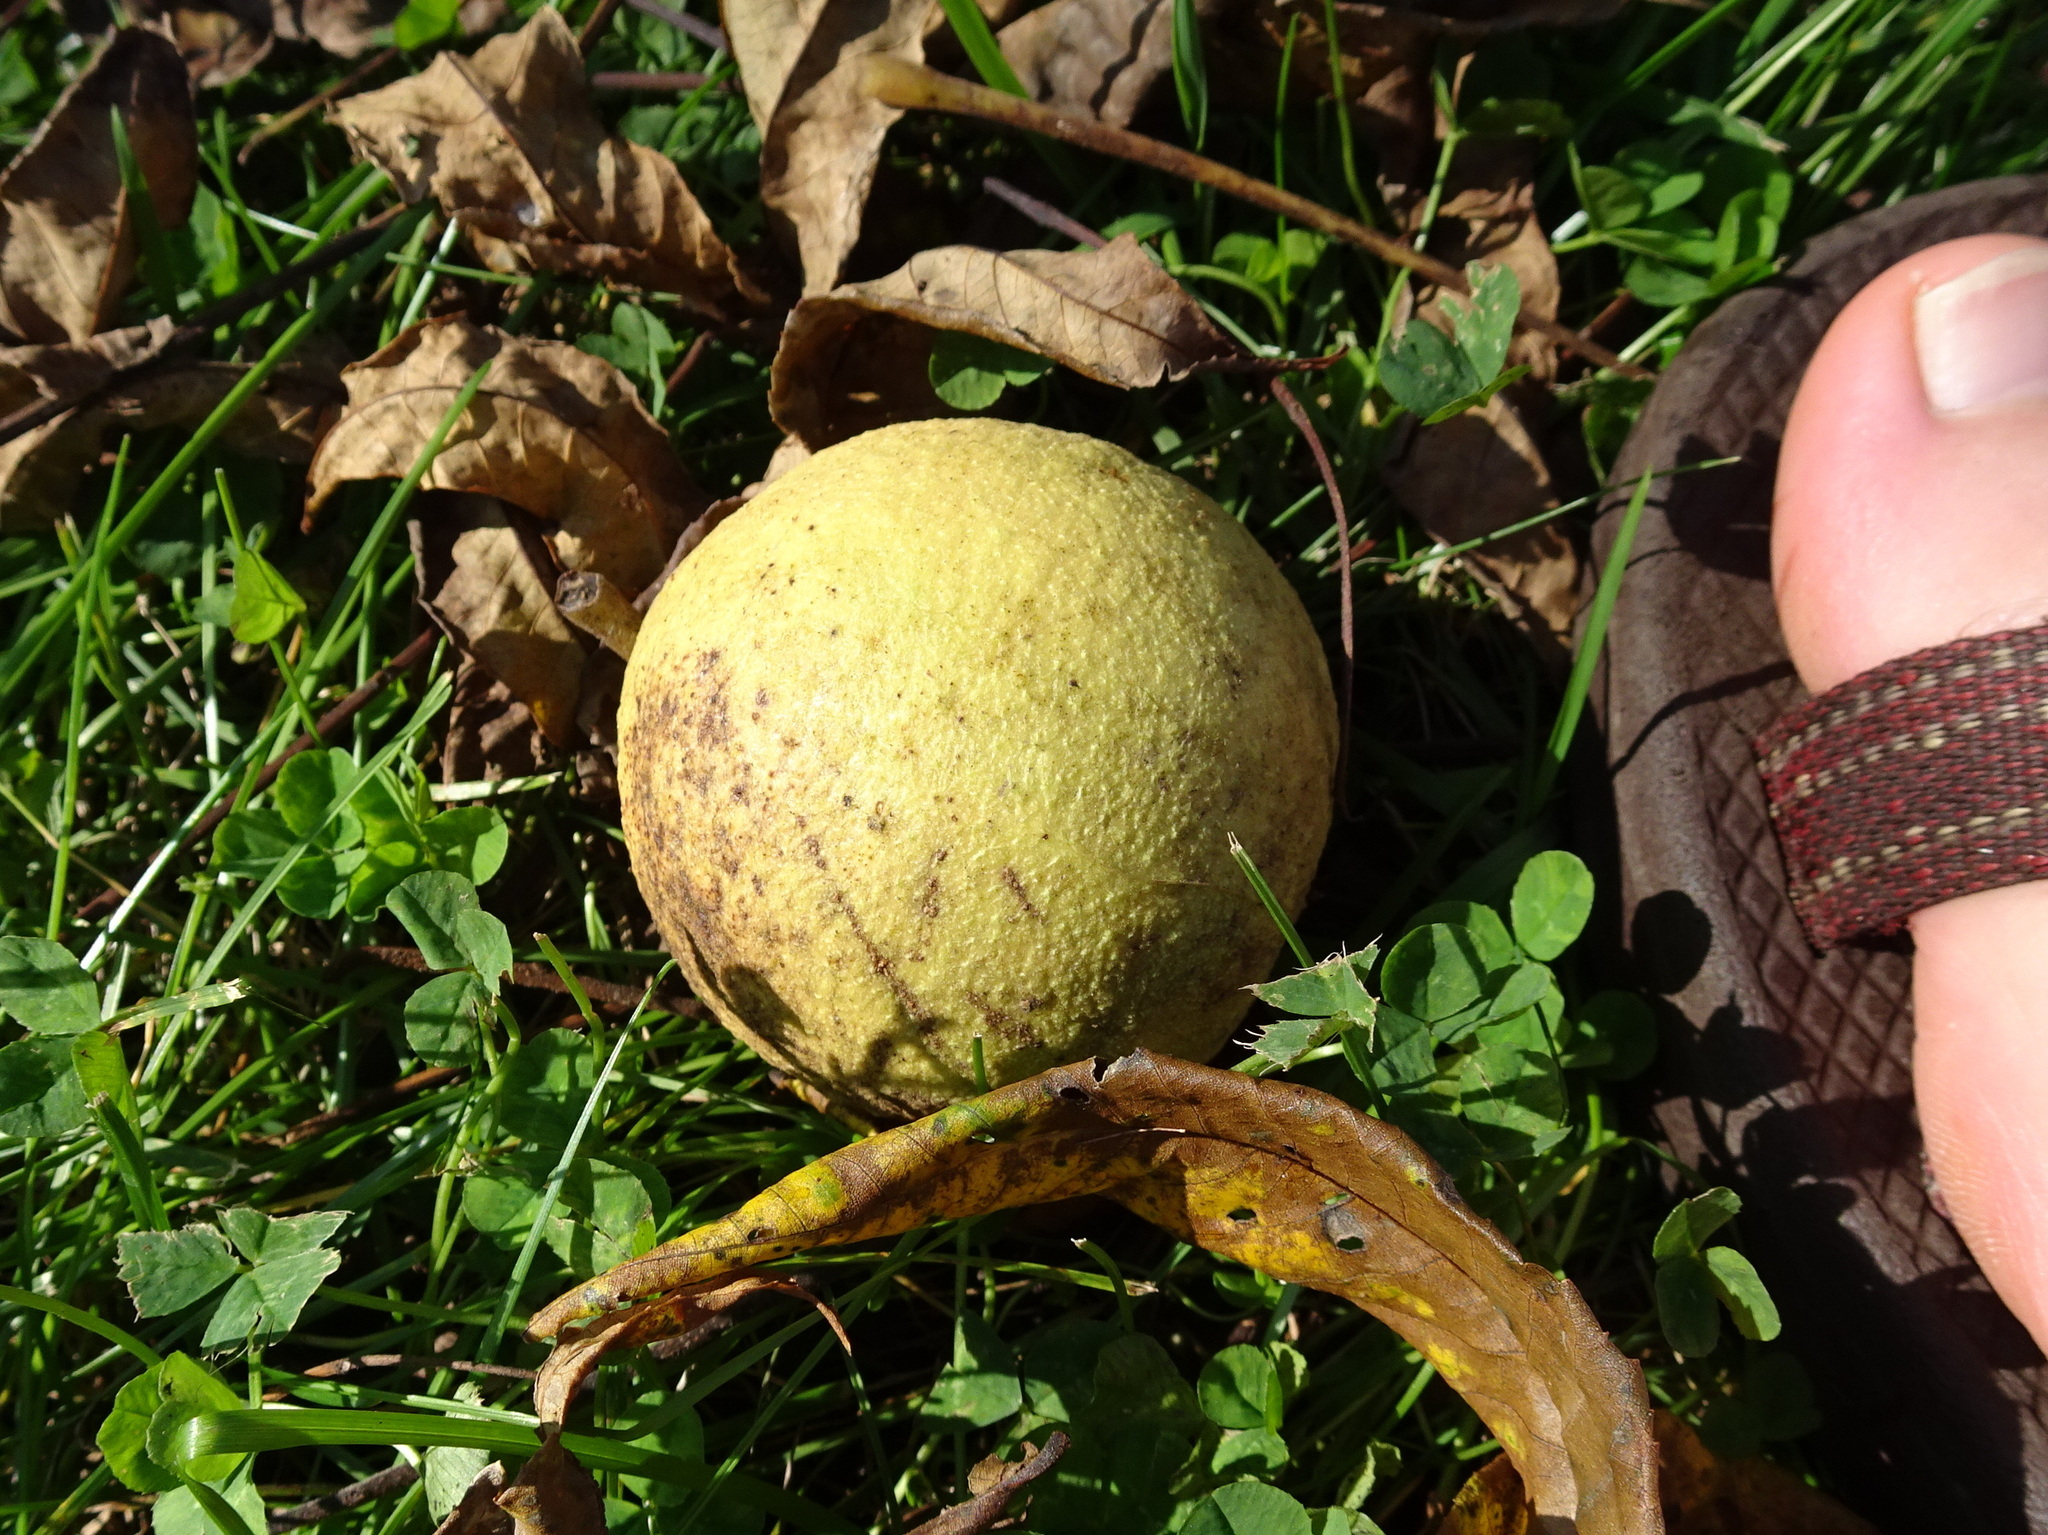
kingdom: Plantae
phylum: Tracheophyta
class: Magnoliopsida
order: Fagales
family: Juglandaceae
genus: Juglans
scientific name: Juglans nigra
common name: Black walnut
